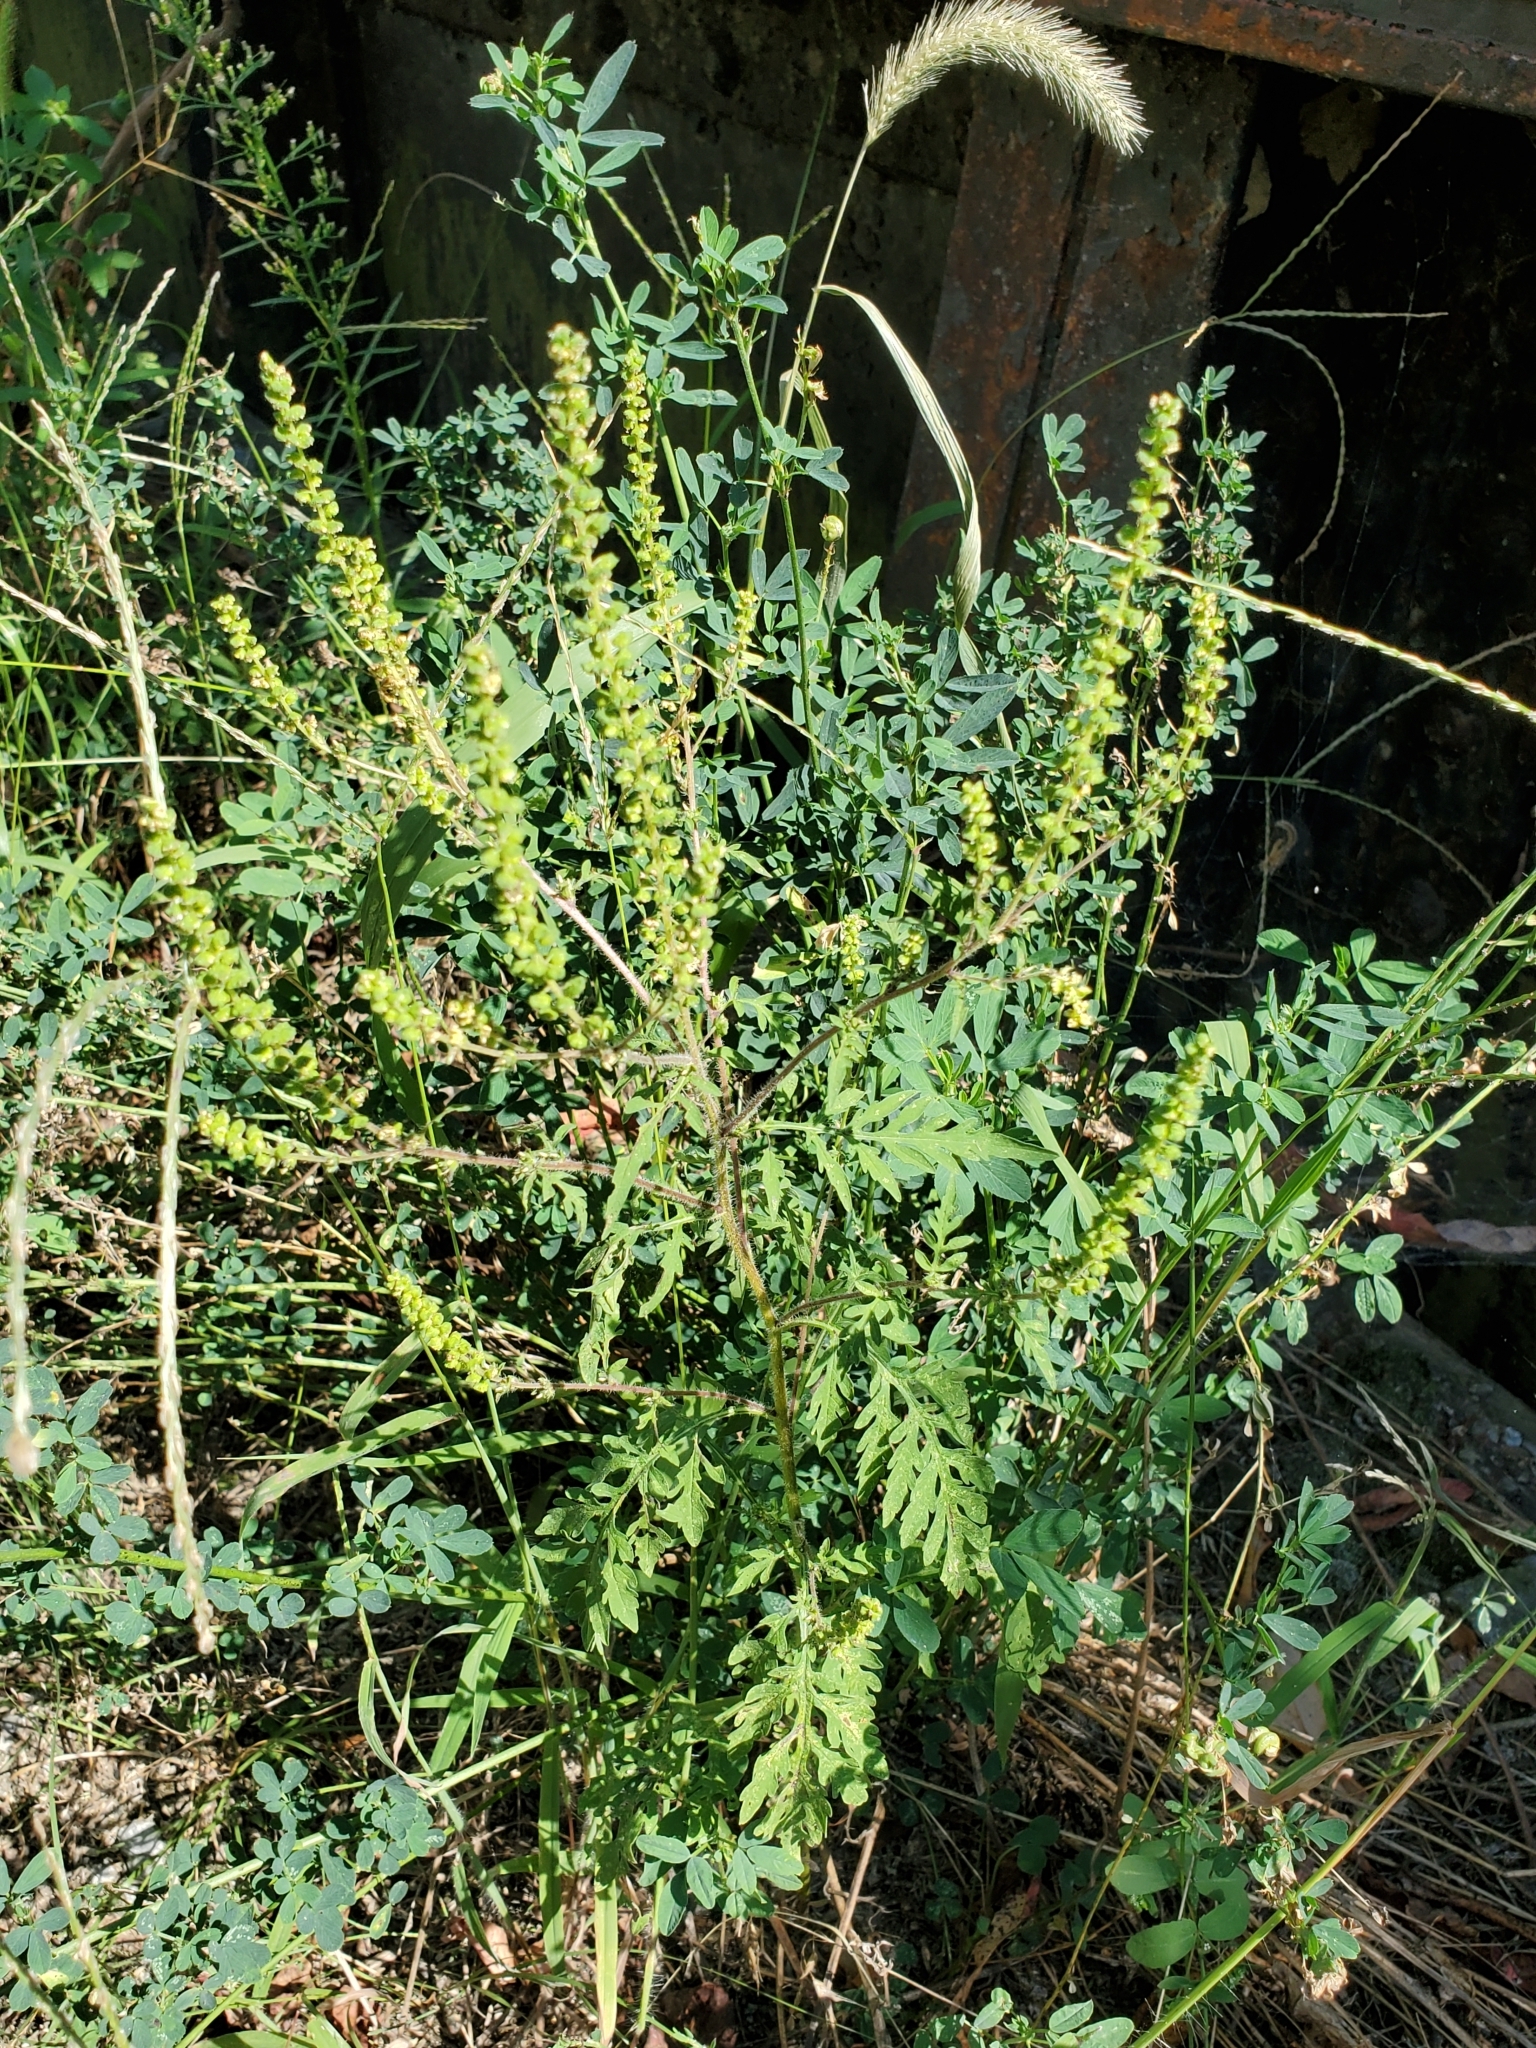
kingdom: Plantae
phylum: Tracheophyta
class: Magnoliopsida
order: Asterales
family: Asteraceae
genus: Ambrosia
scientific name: Ambrosia artemisiifolia
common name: Annual ragweed
